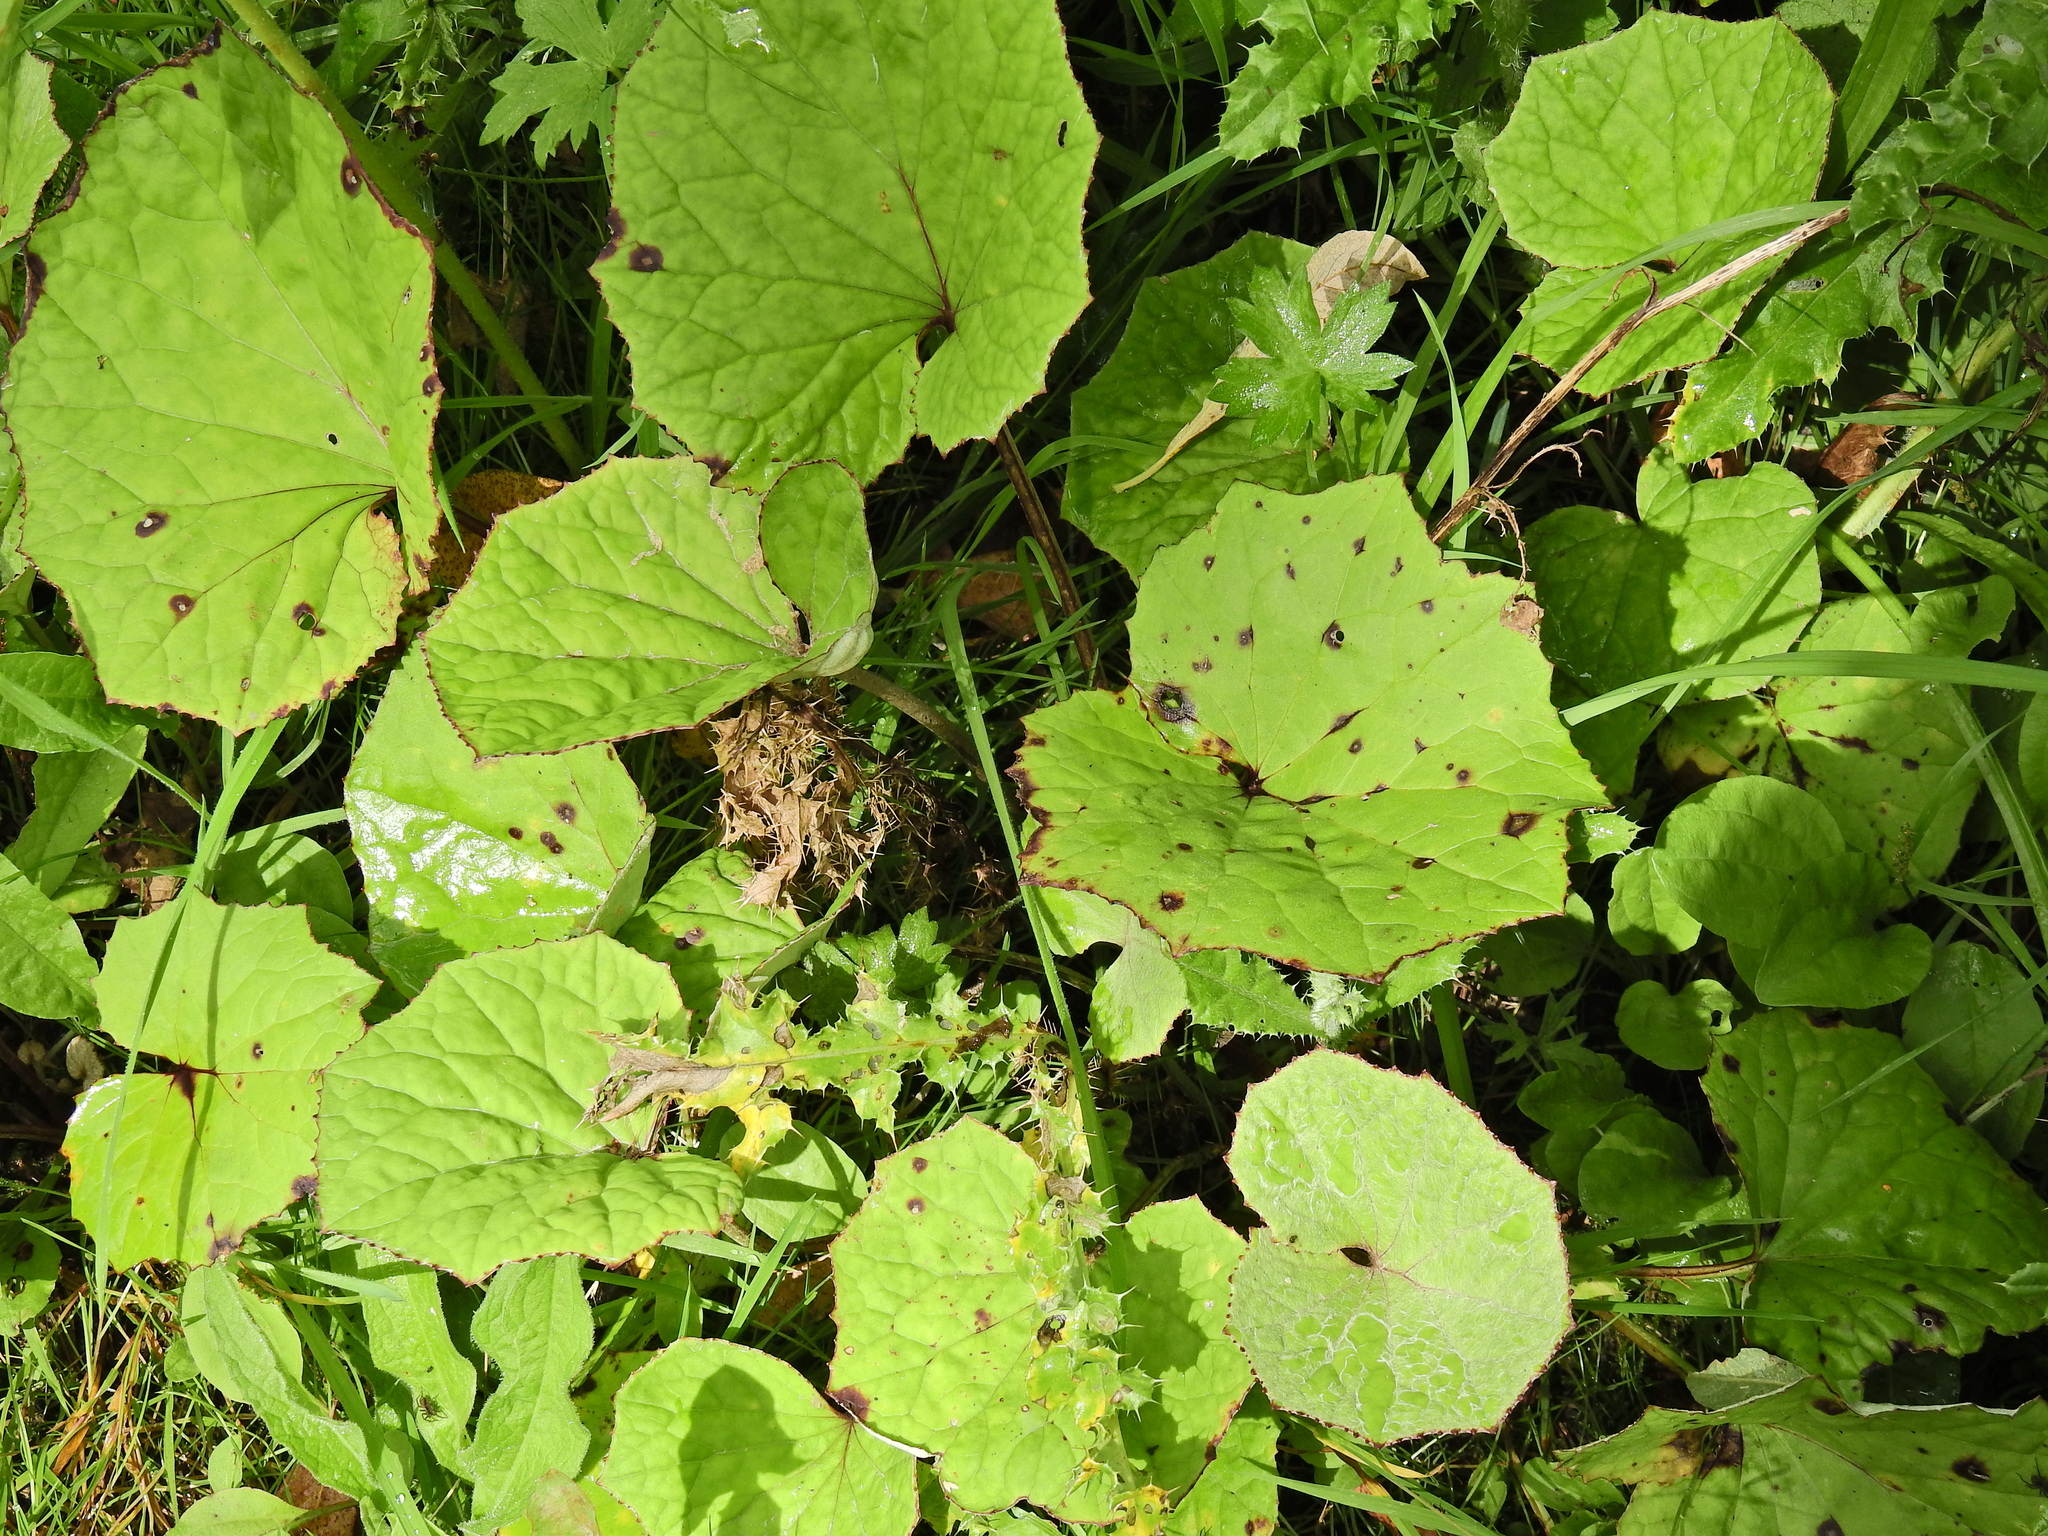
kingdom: Plantae
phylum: Tracheophyta
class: Magnoliopsida
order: Asterales
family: Asteraceae
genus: Tussilago
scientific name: Tussilago farfara
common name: Coltsfoot
